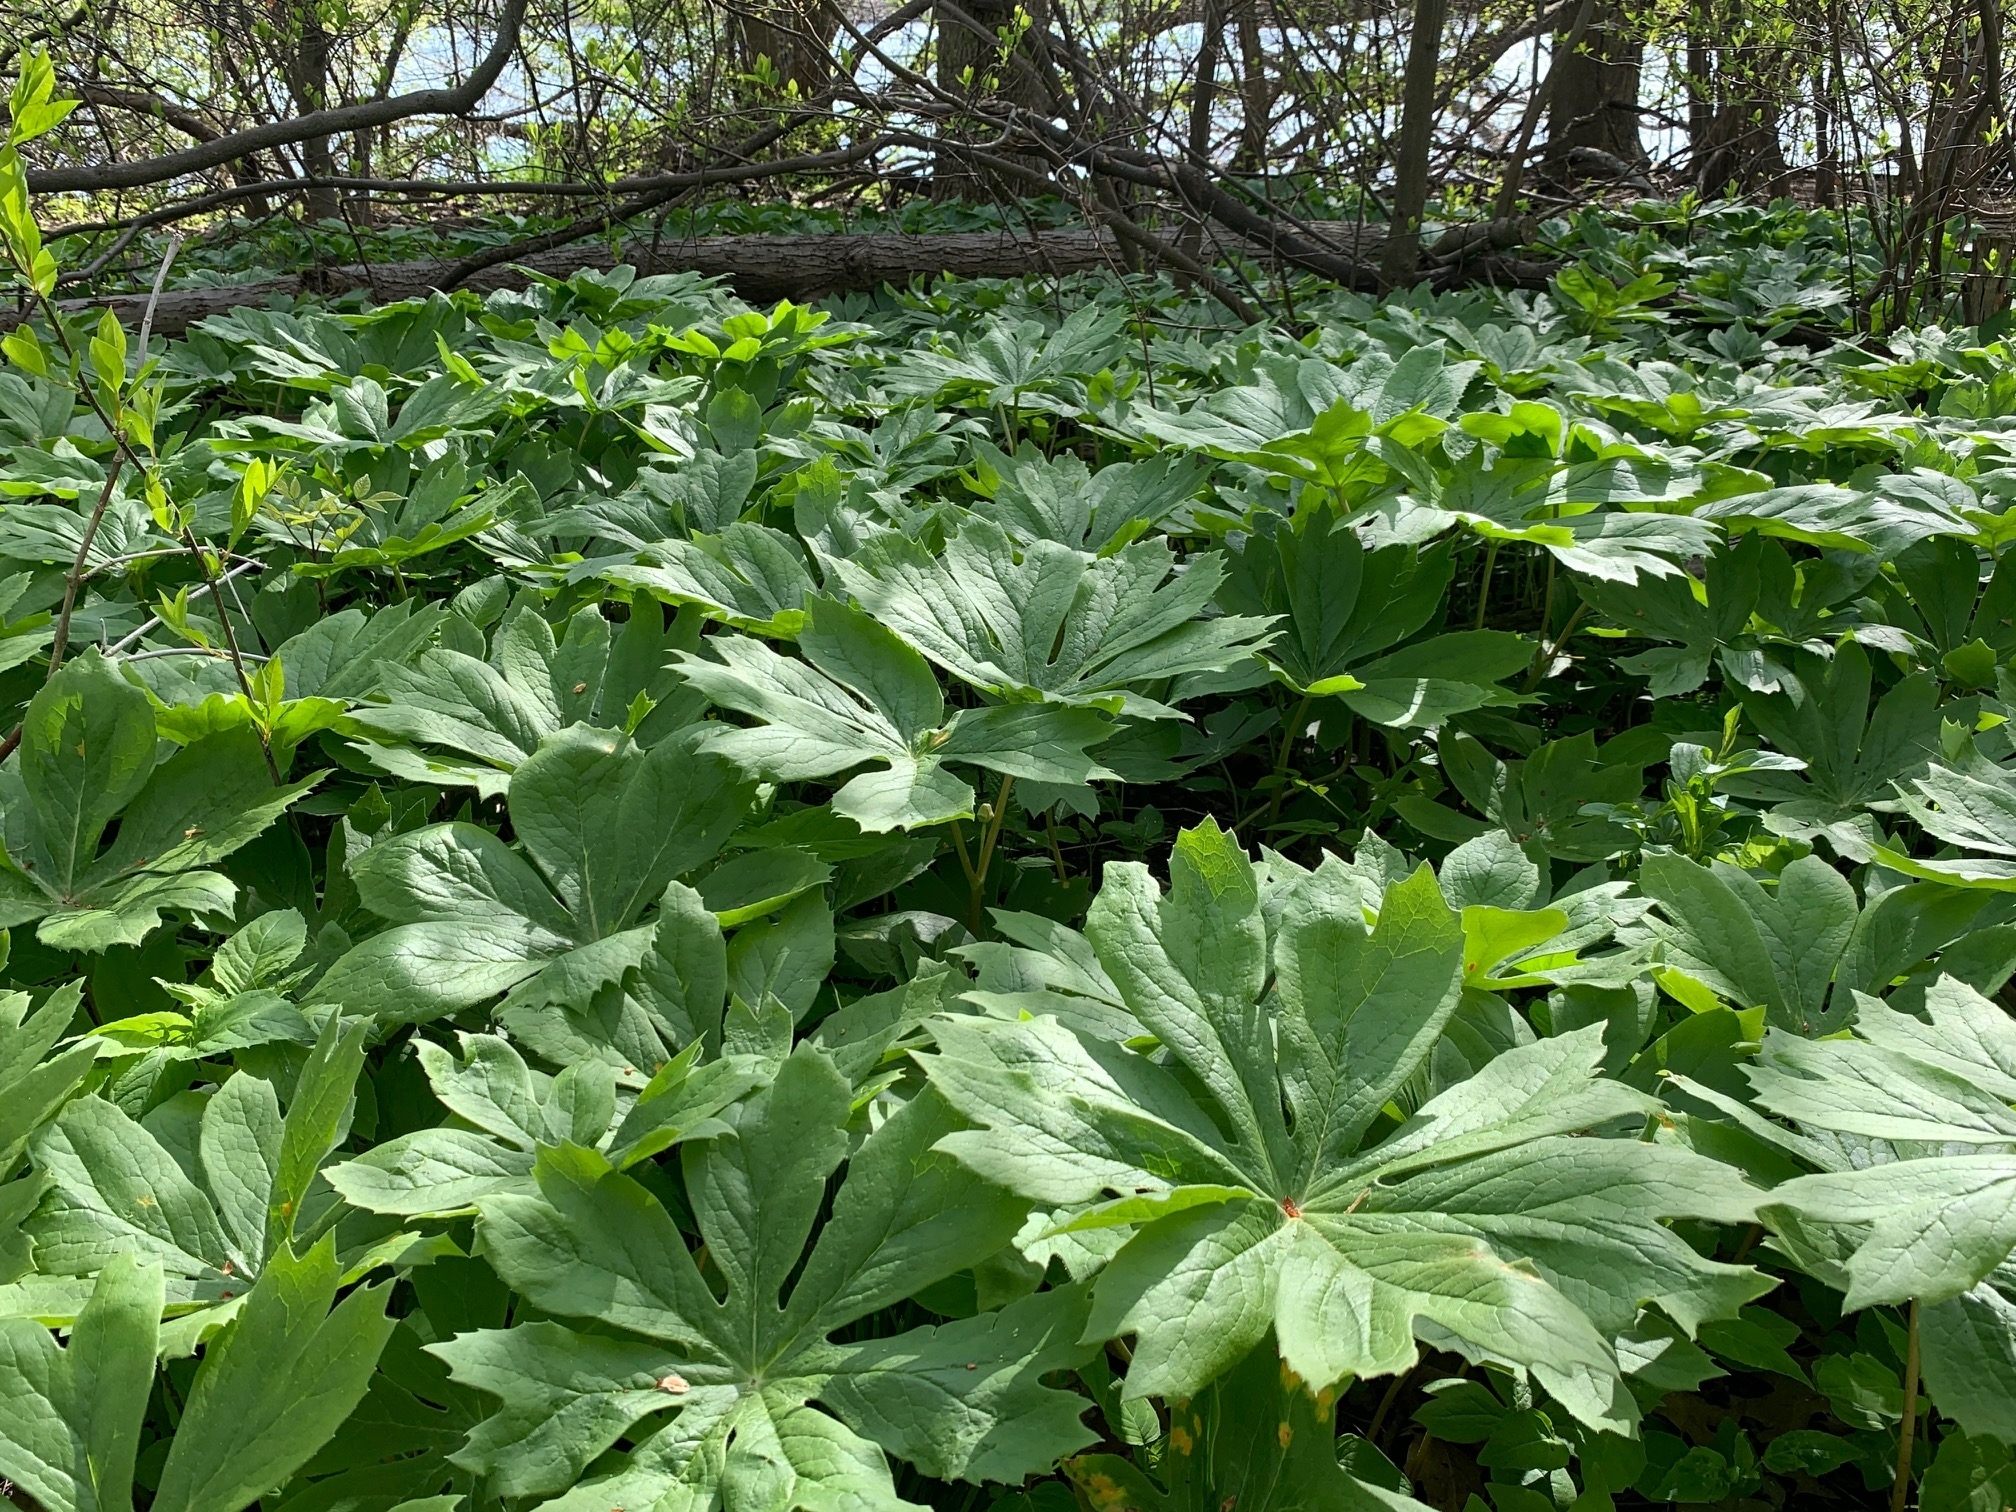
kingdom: Plantae
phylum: Tracheophyta
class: Magnoliopsida
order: Ranunculales
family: Berberidaceae
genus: Podophyllum
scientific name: Podophyllum peltatum
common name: Wild mandrake
